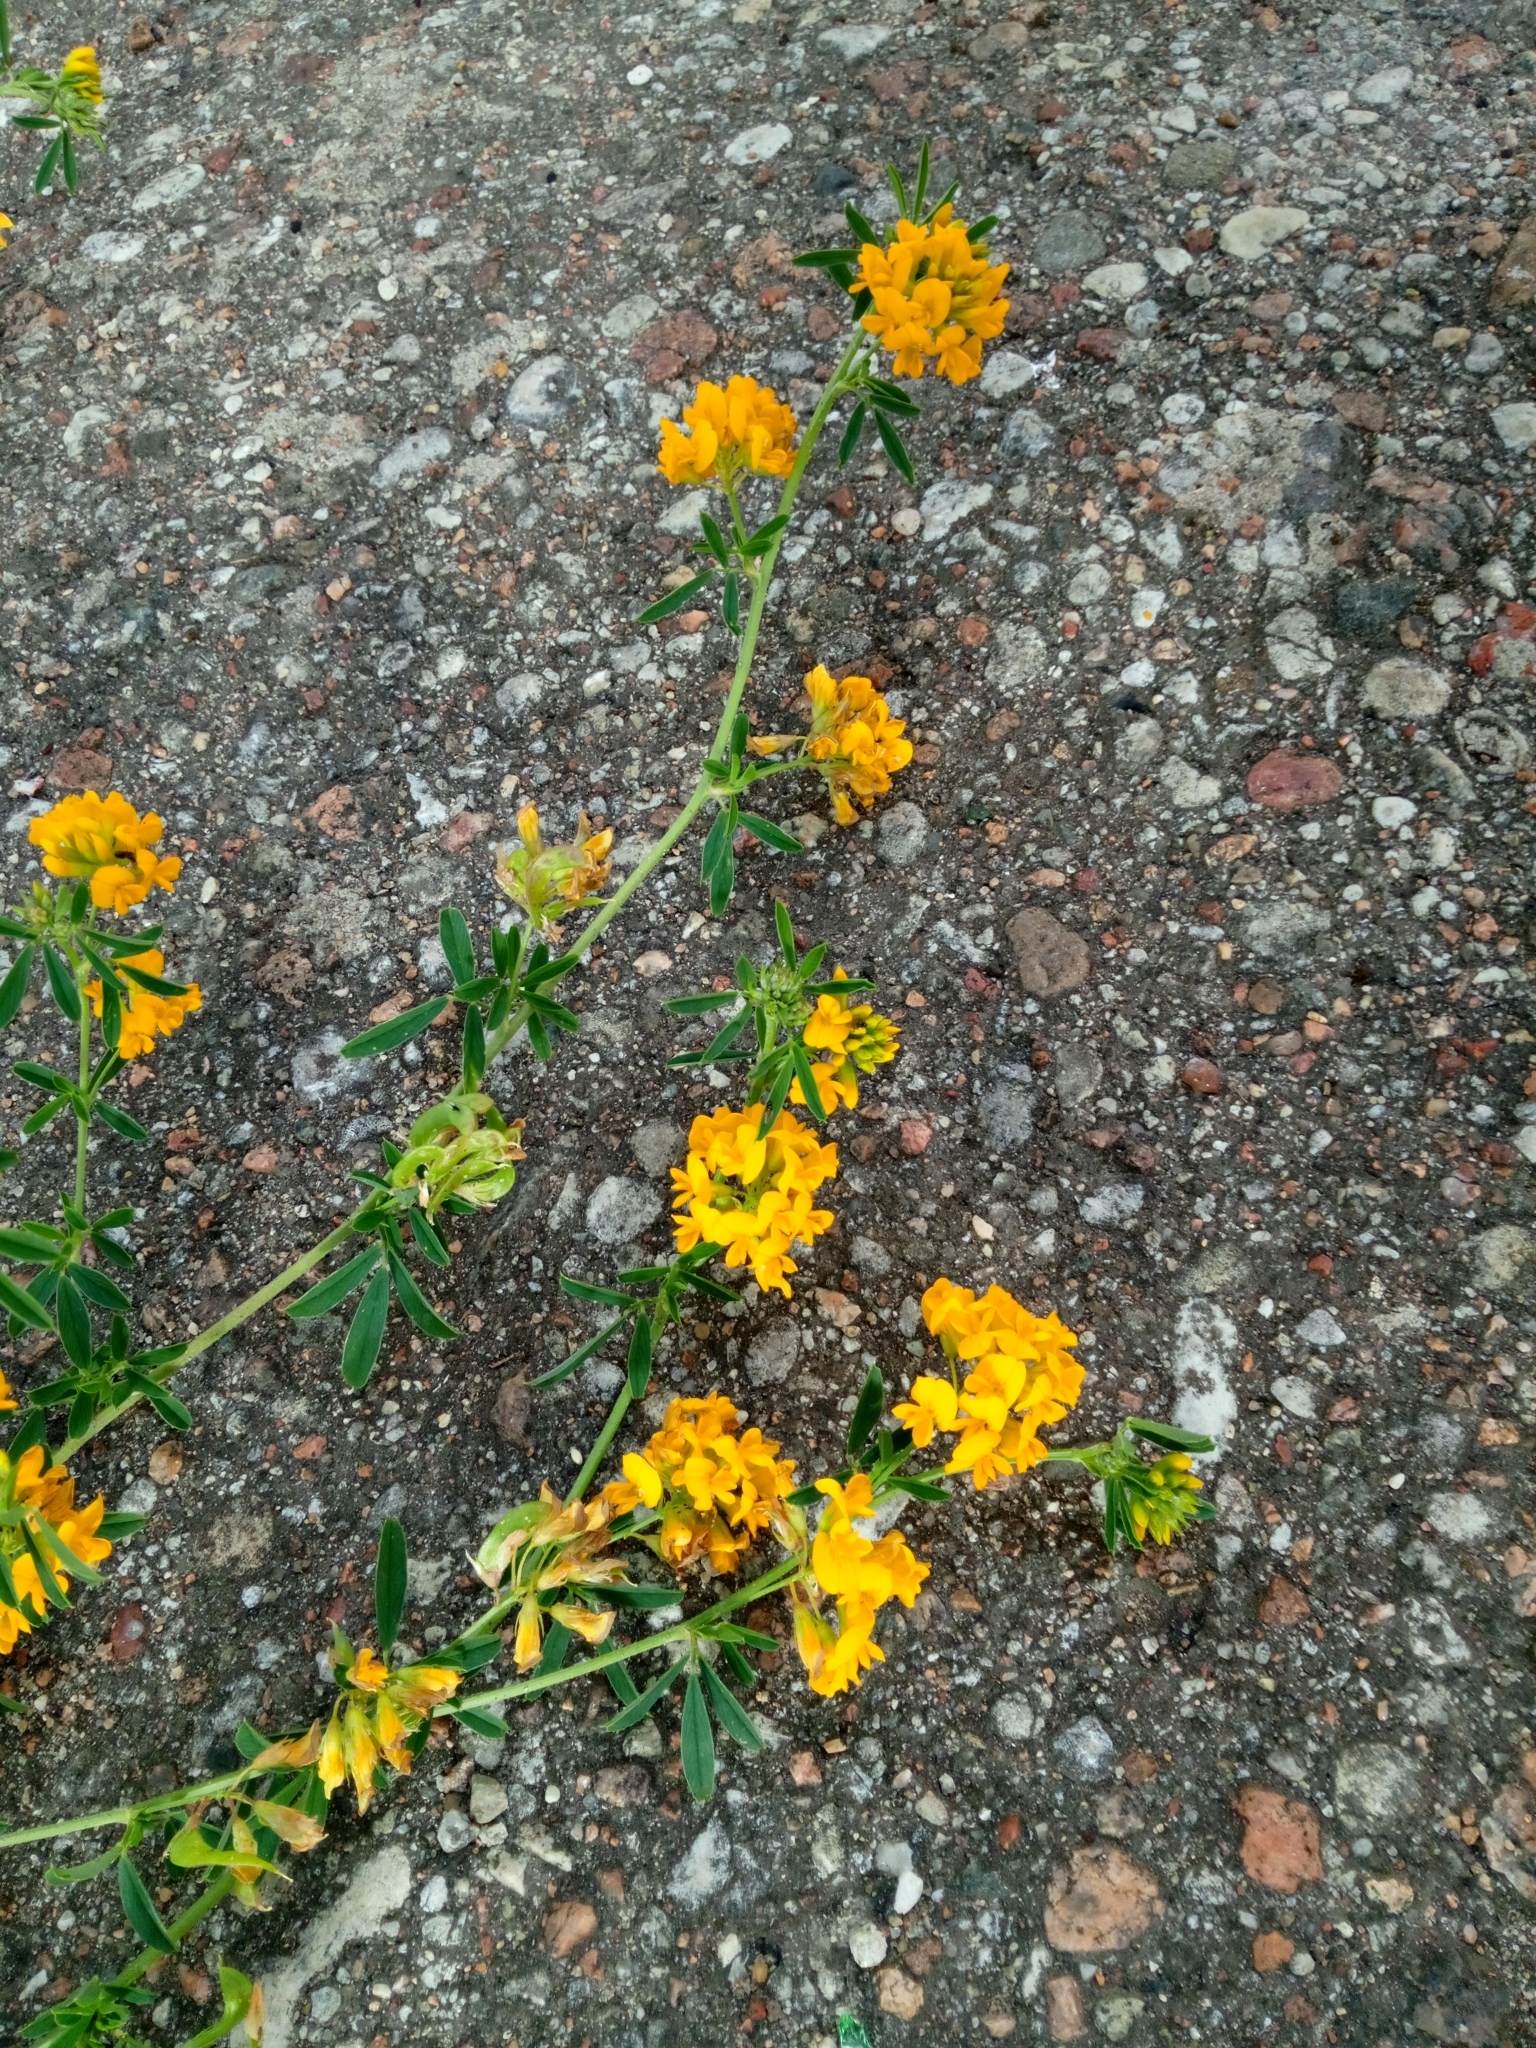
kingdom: Plantae
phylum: Tracheophyta
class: Magnoliopsida
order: Fabales
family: Fabaceae
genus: Medicago
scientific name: Medicago falcata
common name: Sickle medick
